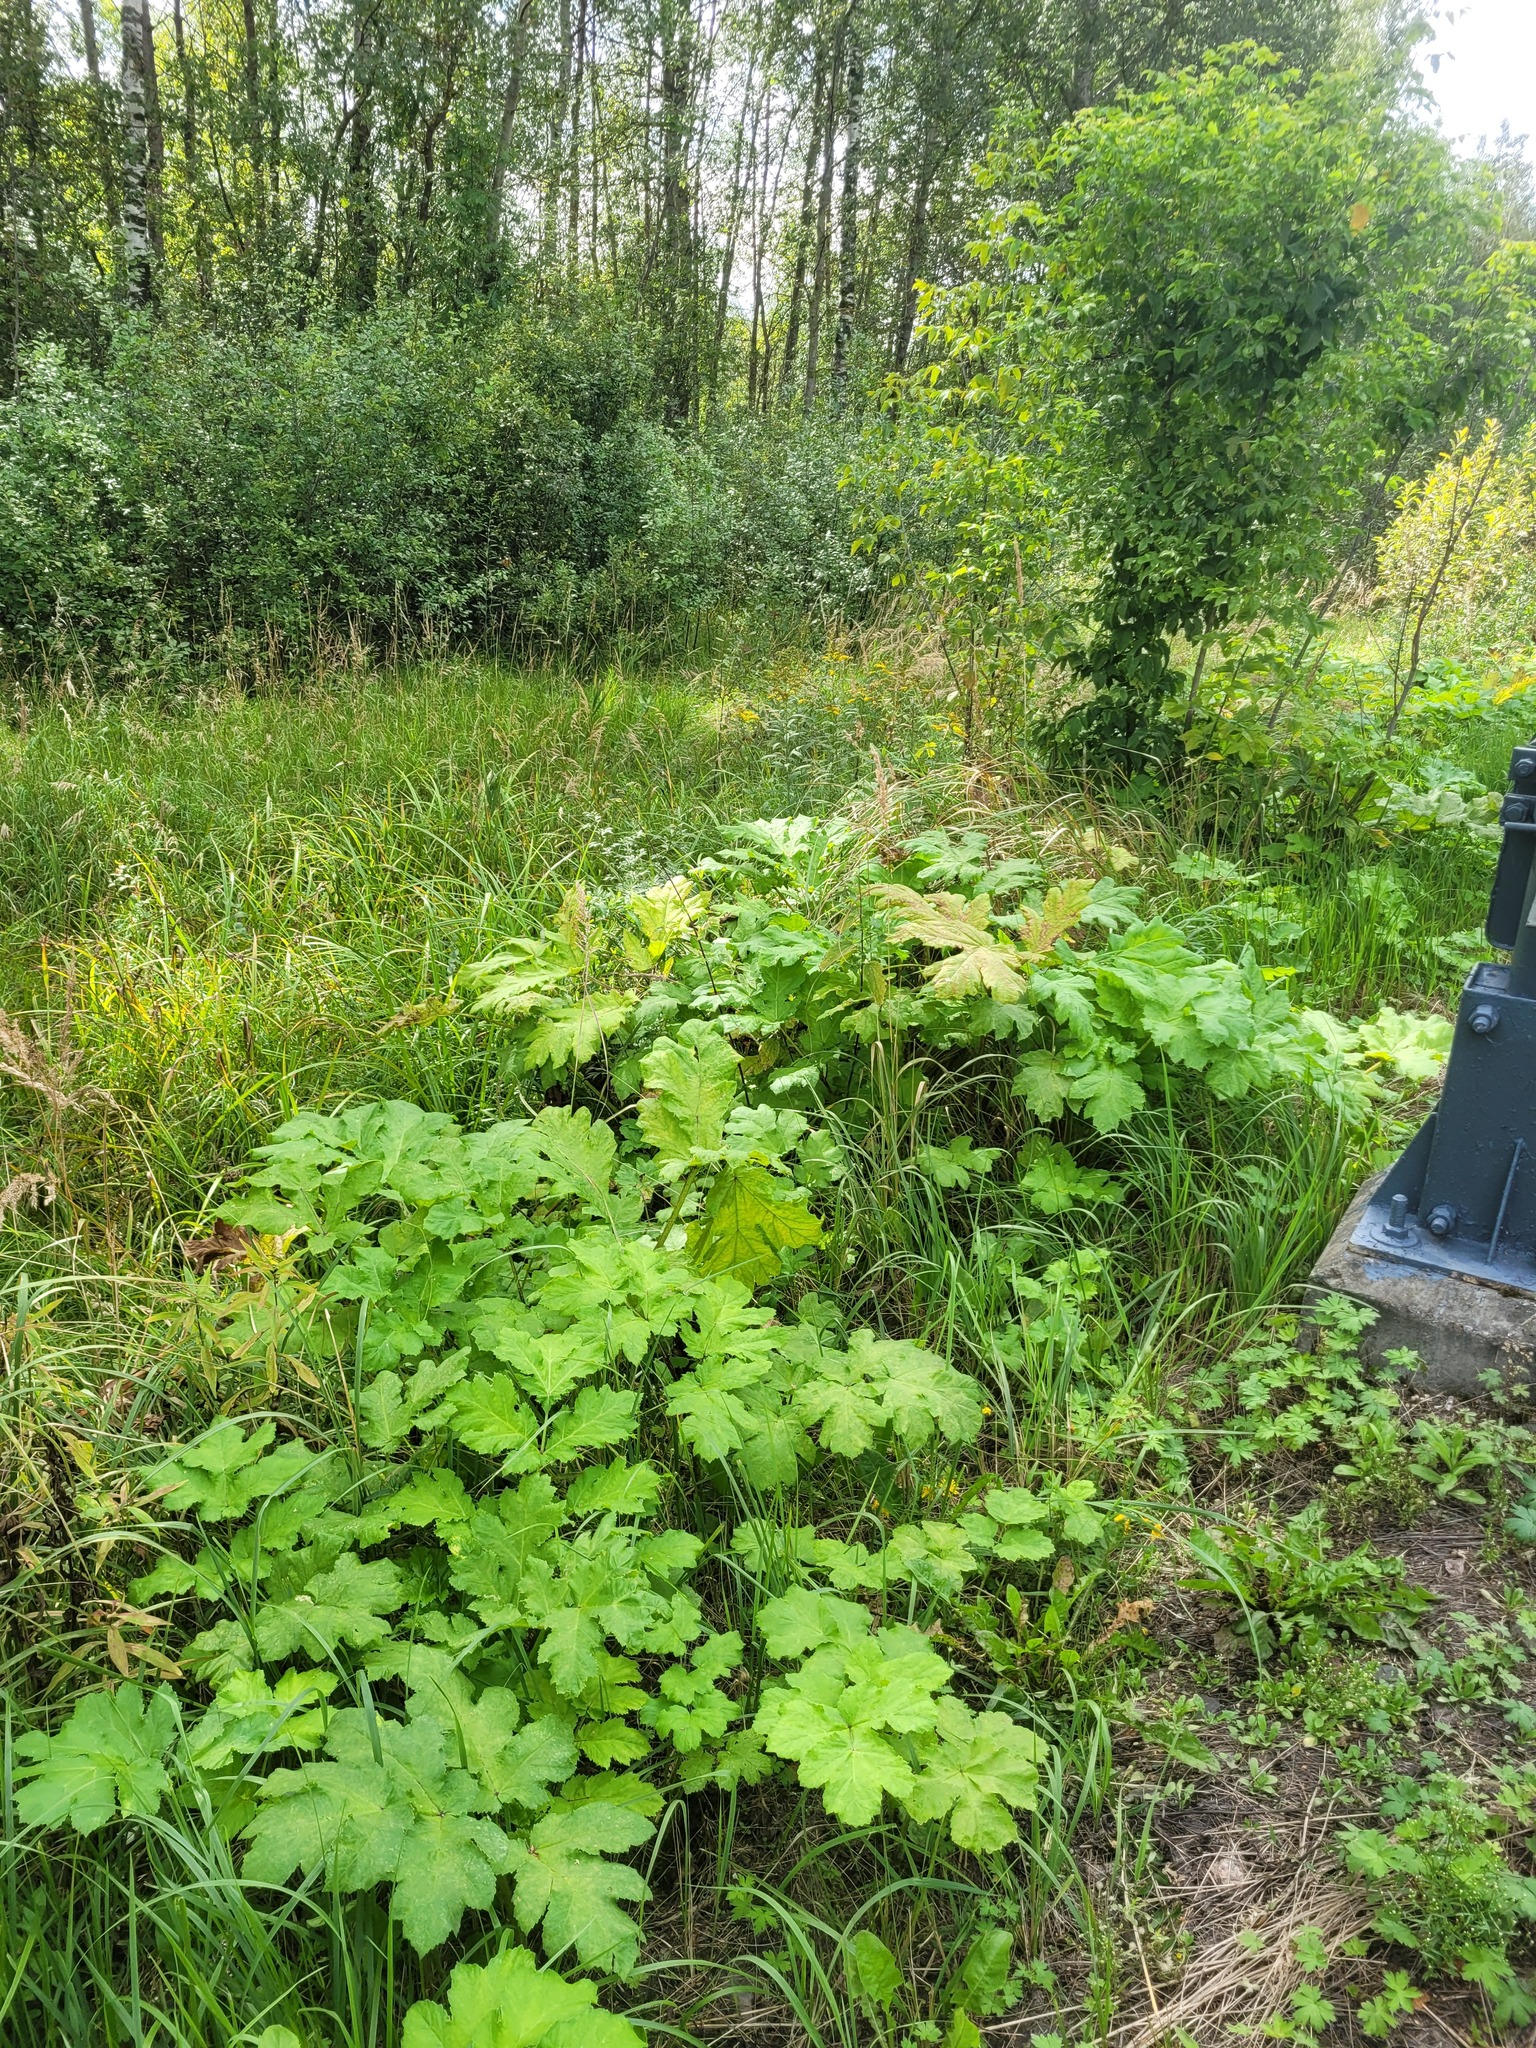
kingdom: Plantae
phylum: Tracheophyta
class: Magnoliopsida
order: Apiales
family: Apiaceae
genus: Heracleum
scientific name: Heracleum sosnowskyi
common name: Sosnowsky's hogweed
